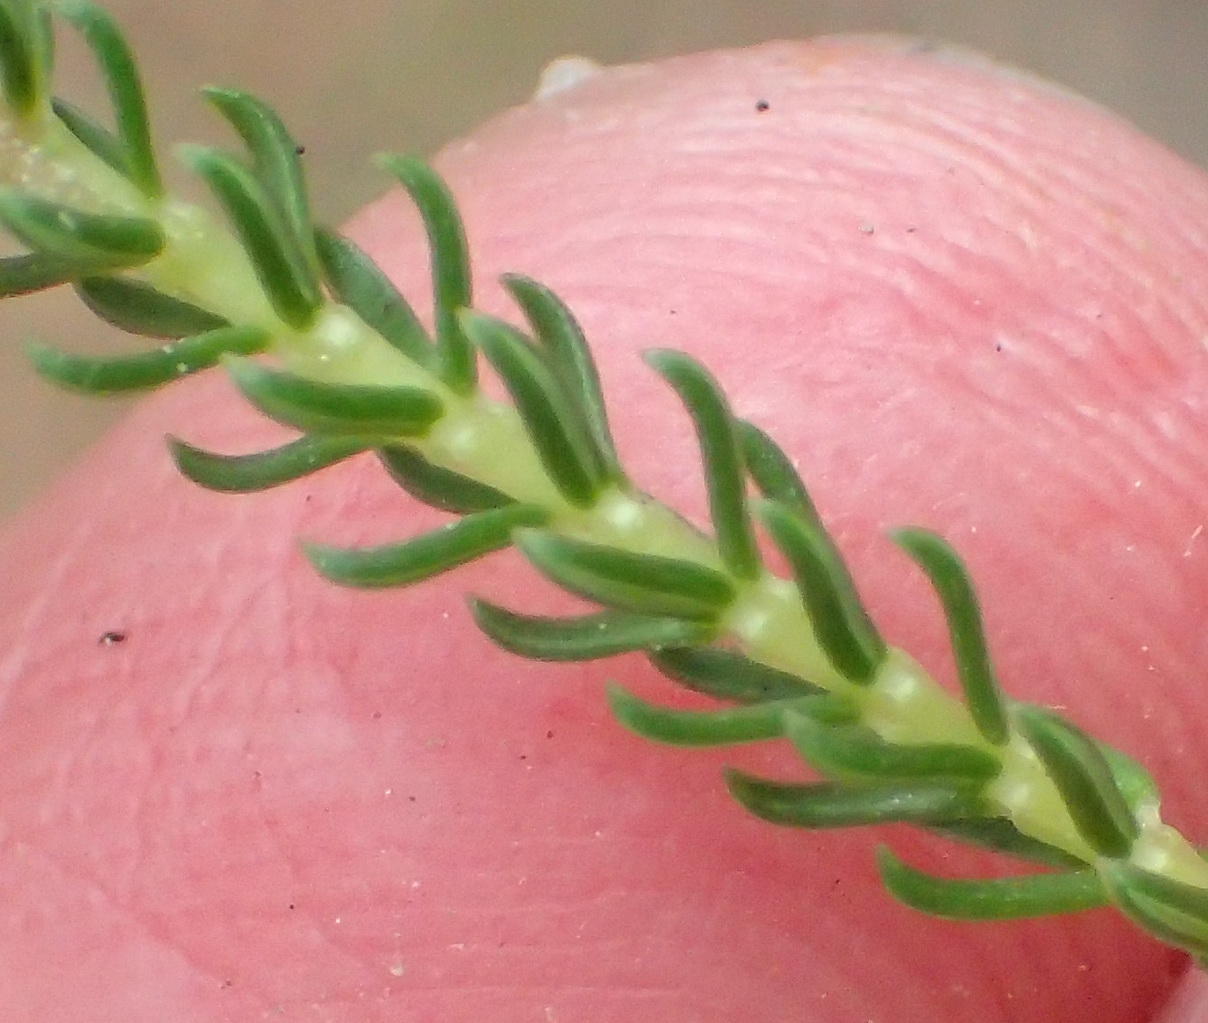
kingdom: Plantae
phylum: Tracheophyta
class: Magnoliopsida
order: Ericales
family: Ericaceae
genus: Erica
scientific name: Erica seriphiifolia
